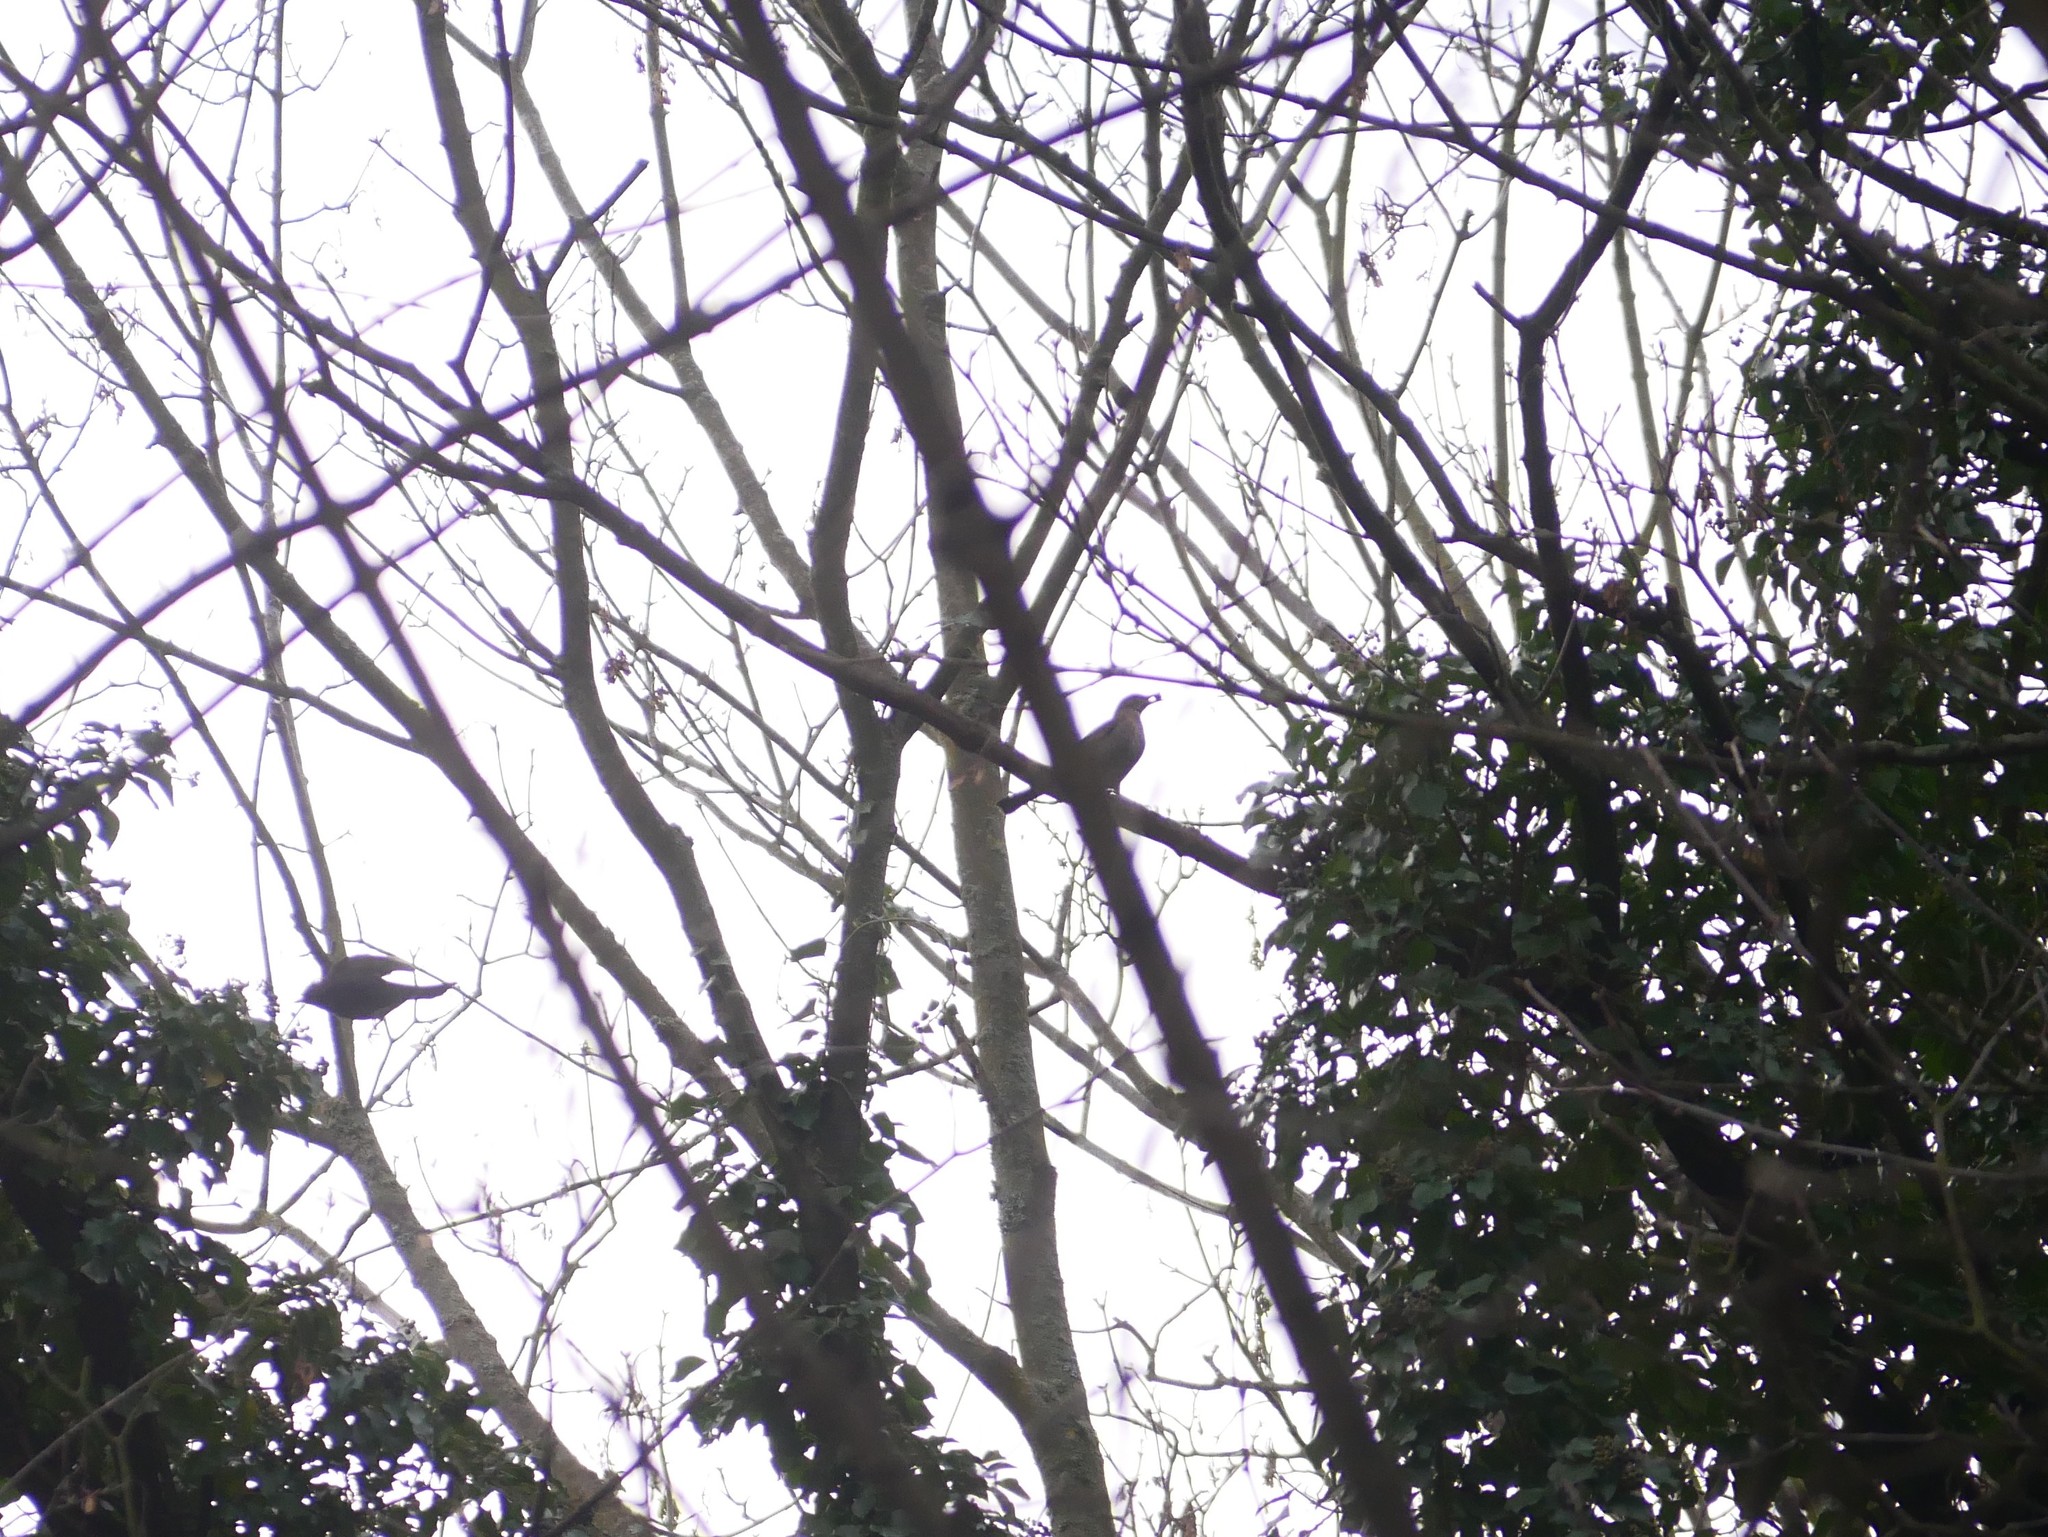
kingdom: Animalia
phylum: Chordata
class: Aves
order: Passeriformes
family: Turdidae
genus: Turdus
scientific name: Turdus merula
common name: Common blackbird
